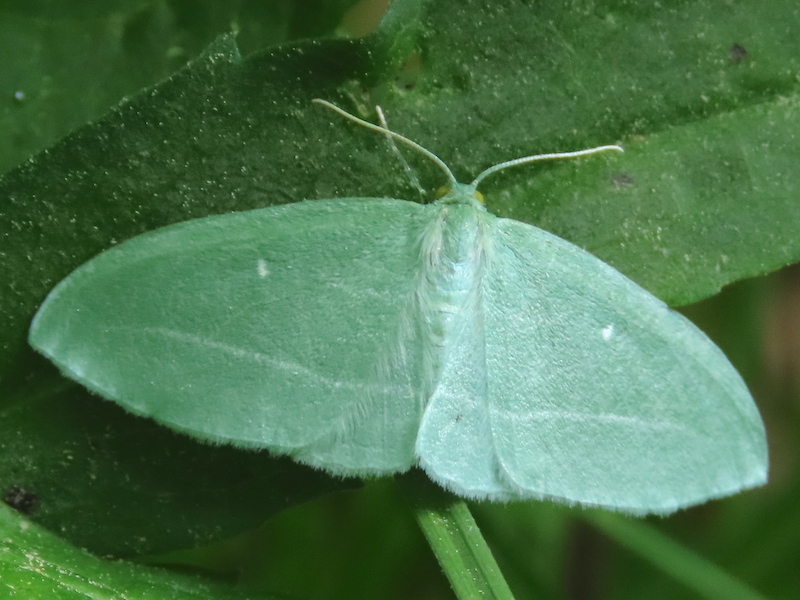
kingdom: Animalia
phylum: Arthropoda
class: Insecta
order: Lepidoptera
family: Geometridae
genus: Dyspteris
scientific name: Dyspteris abortivaria
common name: Bad-wing
